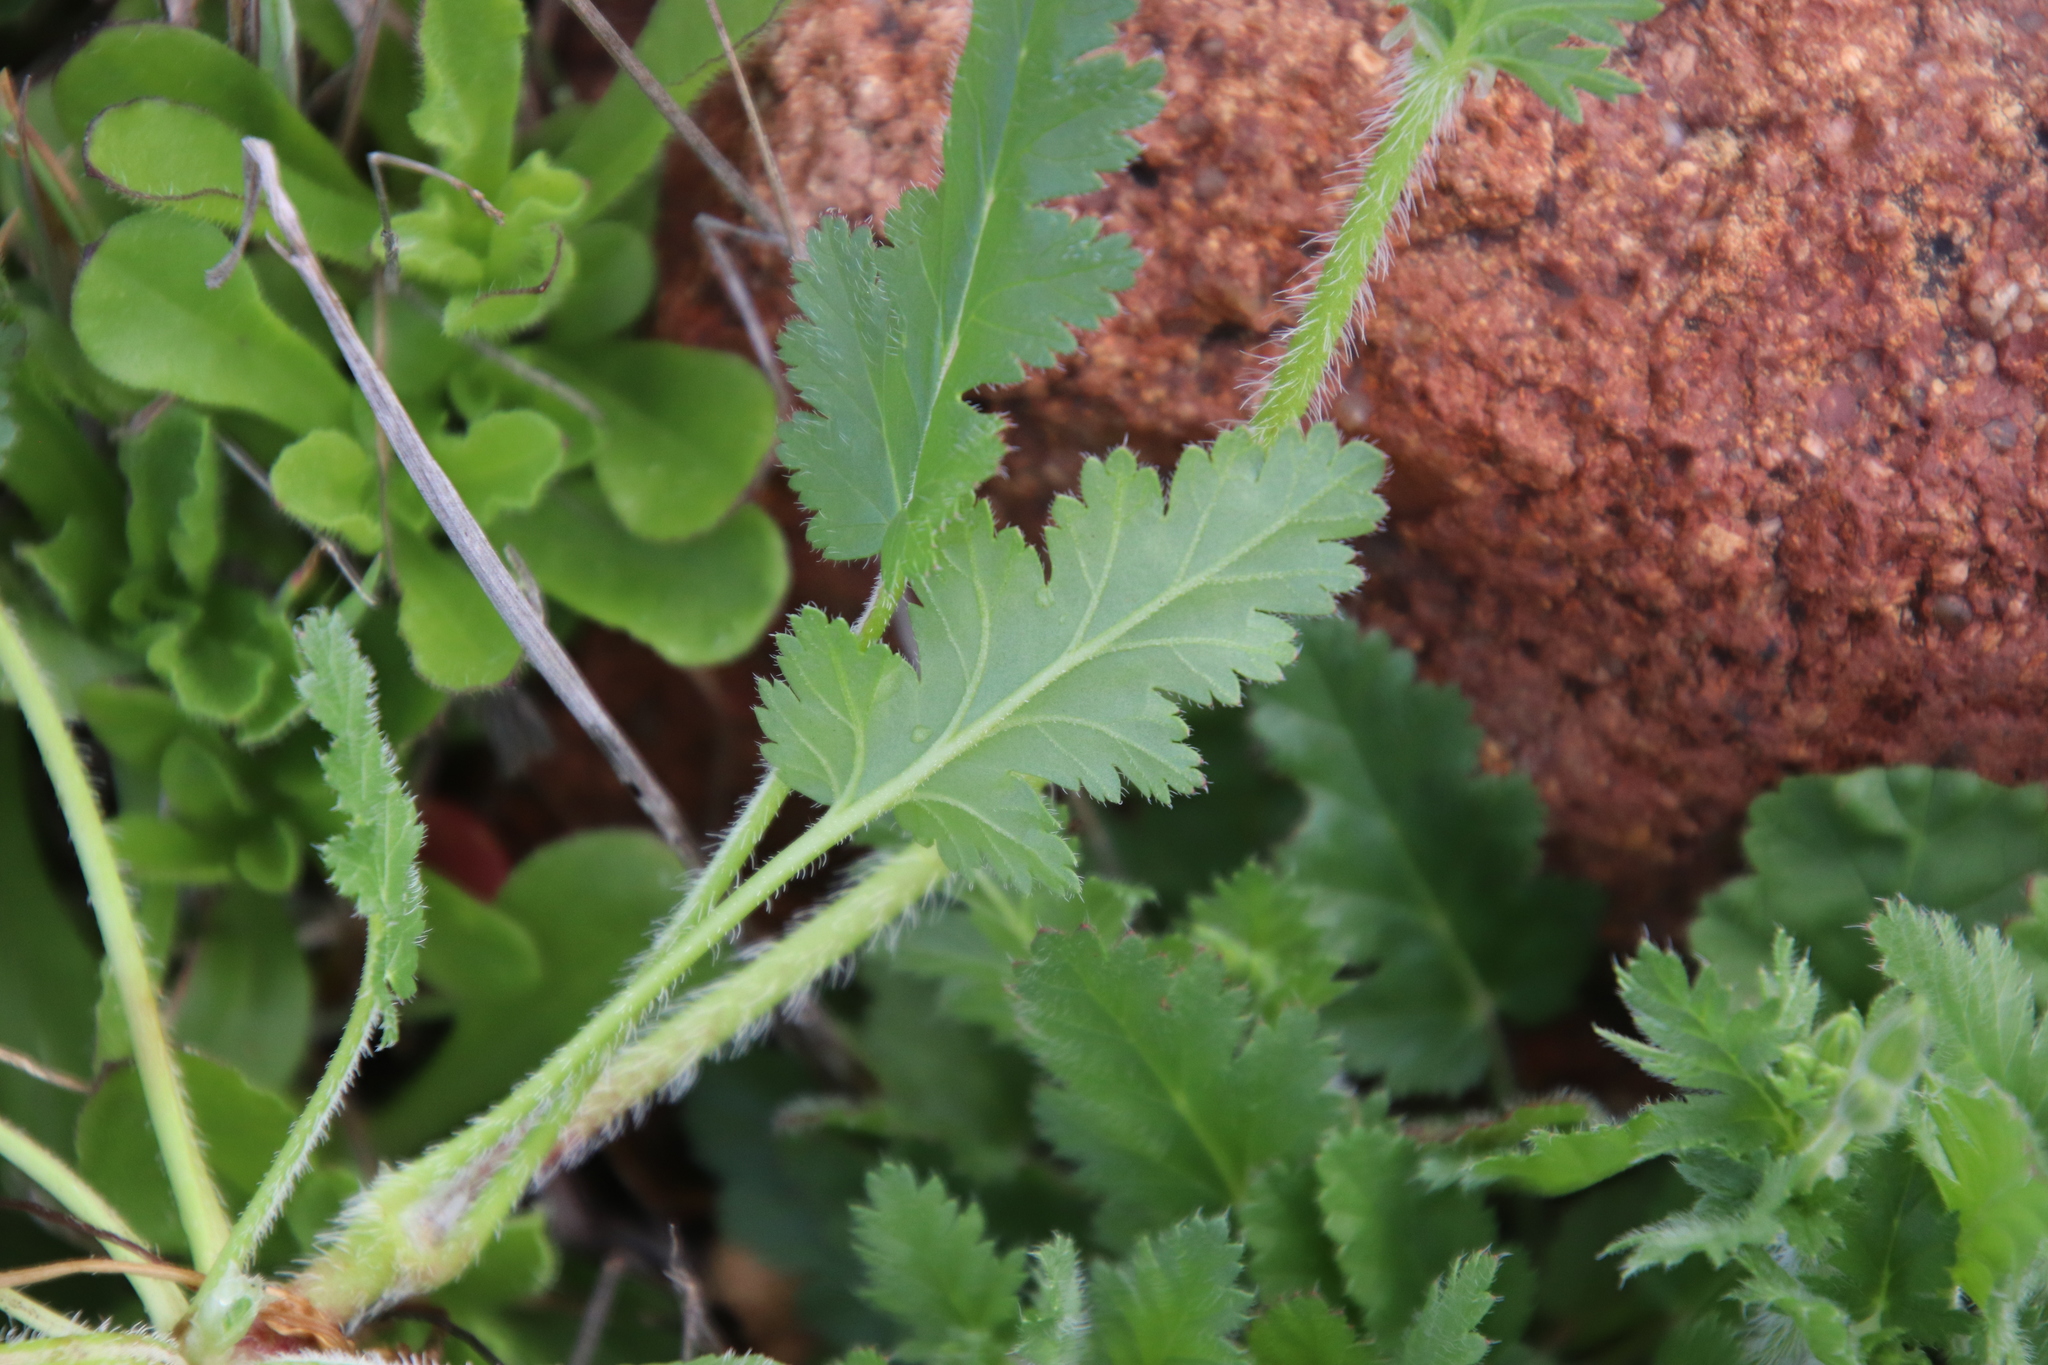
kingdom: Plantae
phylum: Tracheophyta
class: Magnoliopsida
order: Geraniales
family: Geraniaceae
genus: Erodium
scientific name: Erodium brachycarpum
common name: Hairy-pitted stork's-bill
